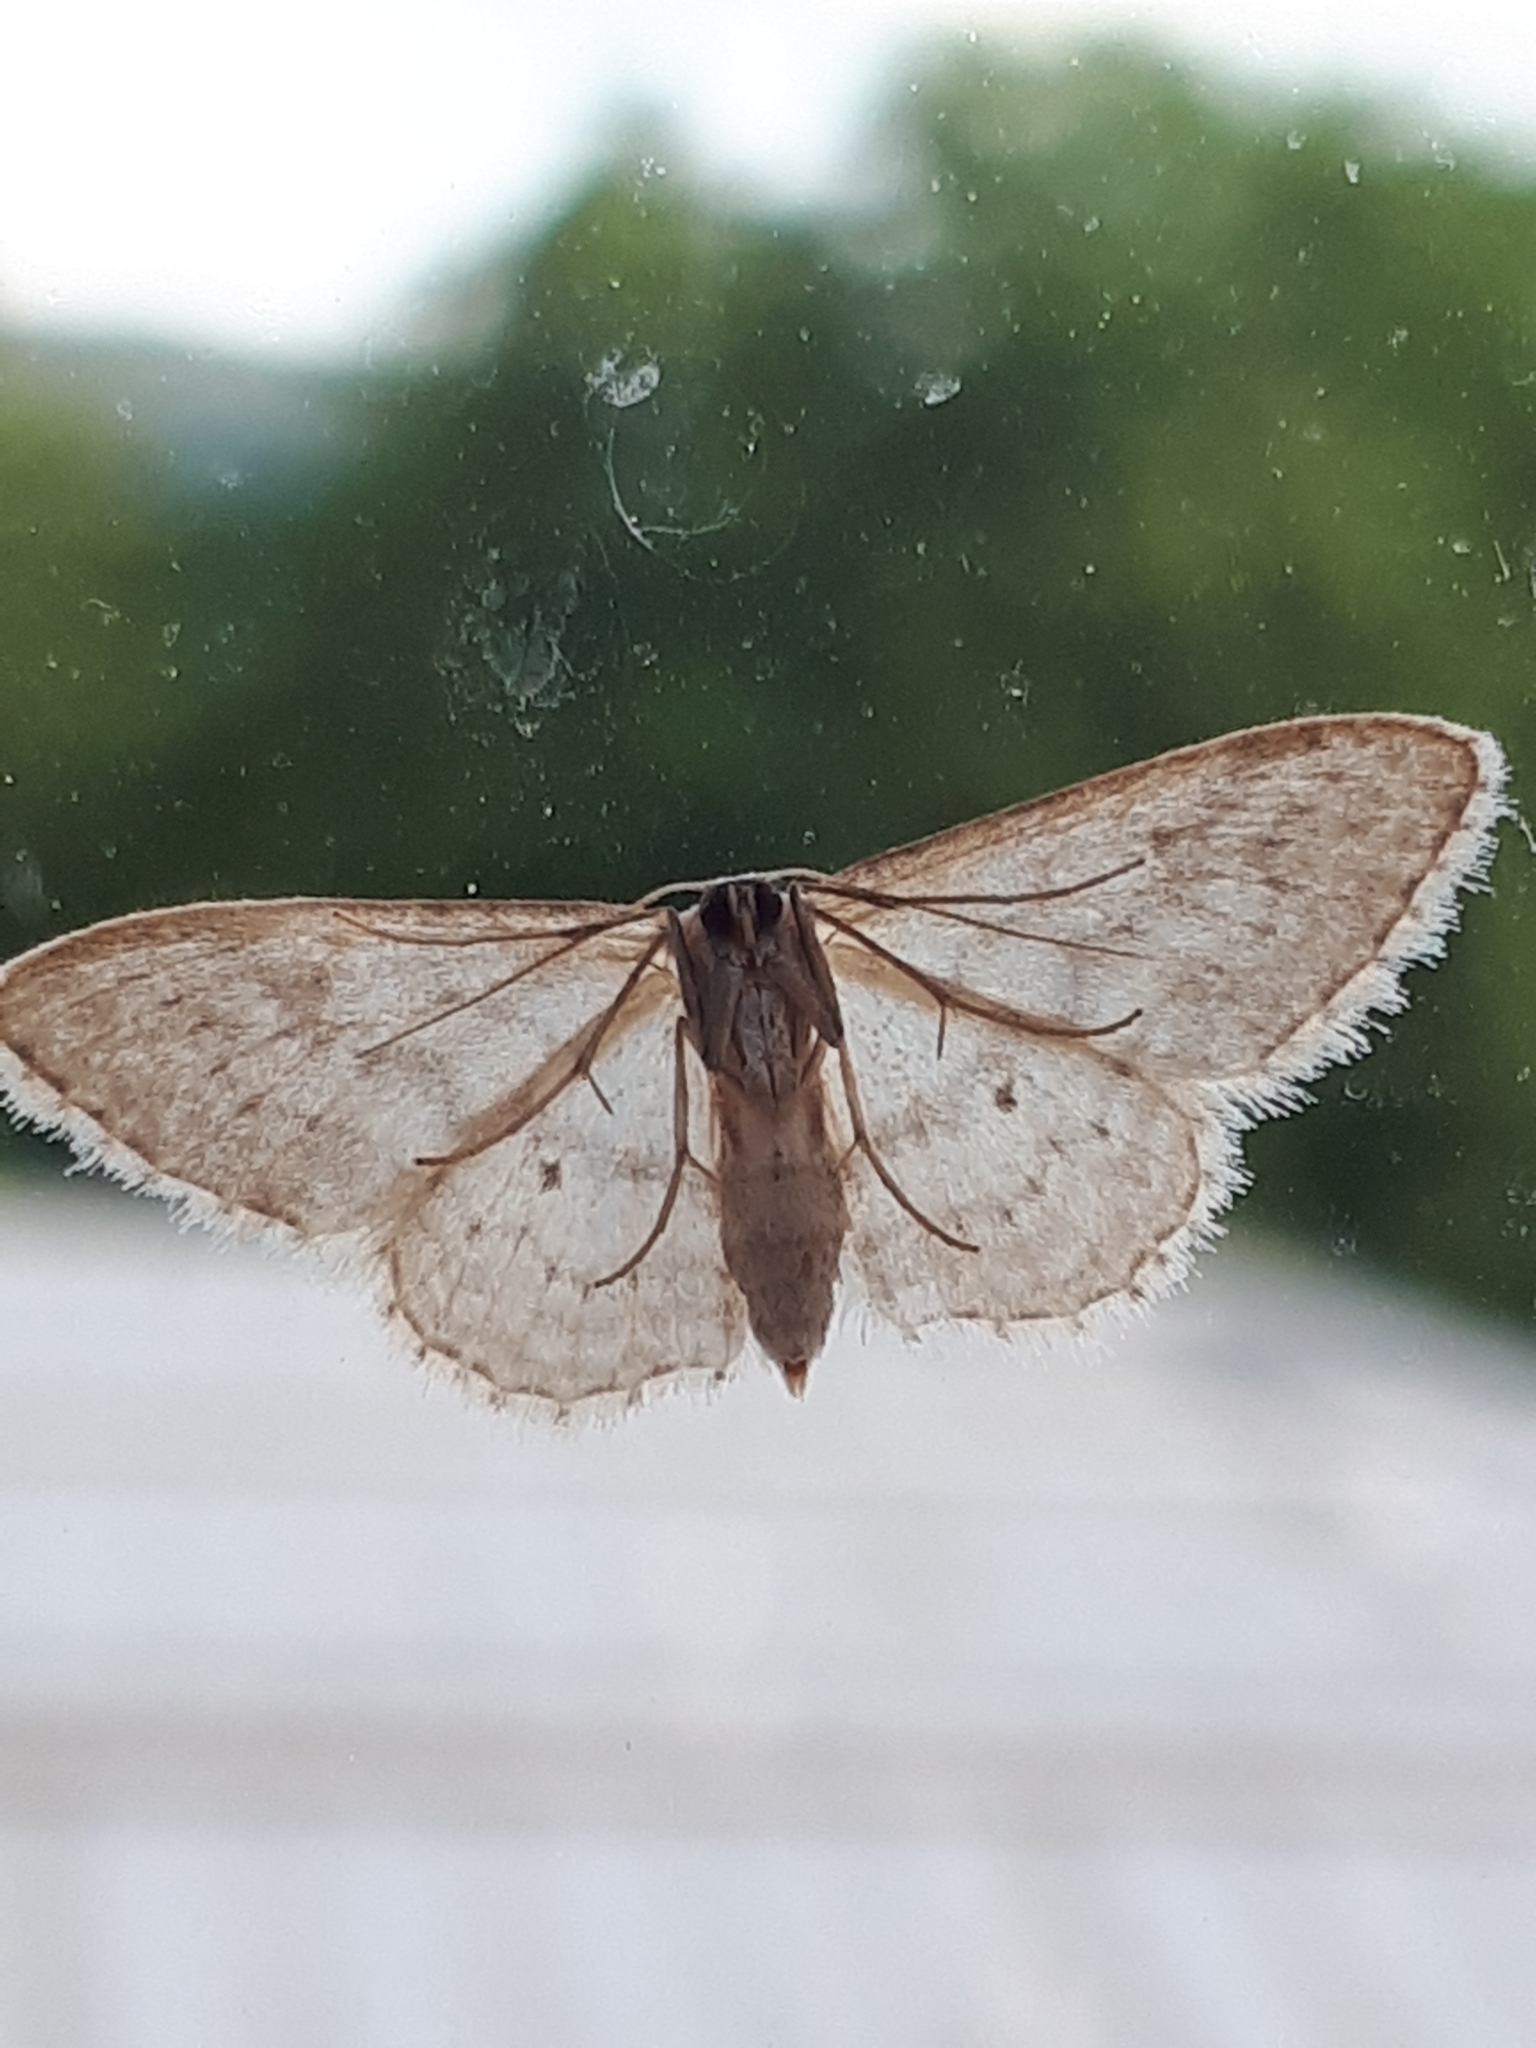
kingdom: Animalia
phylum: Arthropoda
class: Insecta
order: Lepidoptera
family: Geometridae
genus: Idaea
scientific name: Idaea seriata
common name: Small dusty wave
